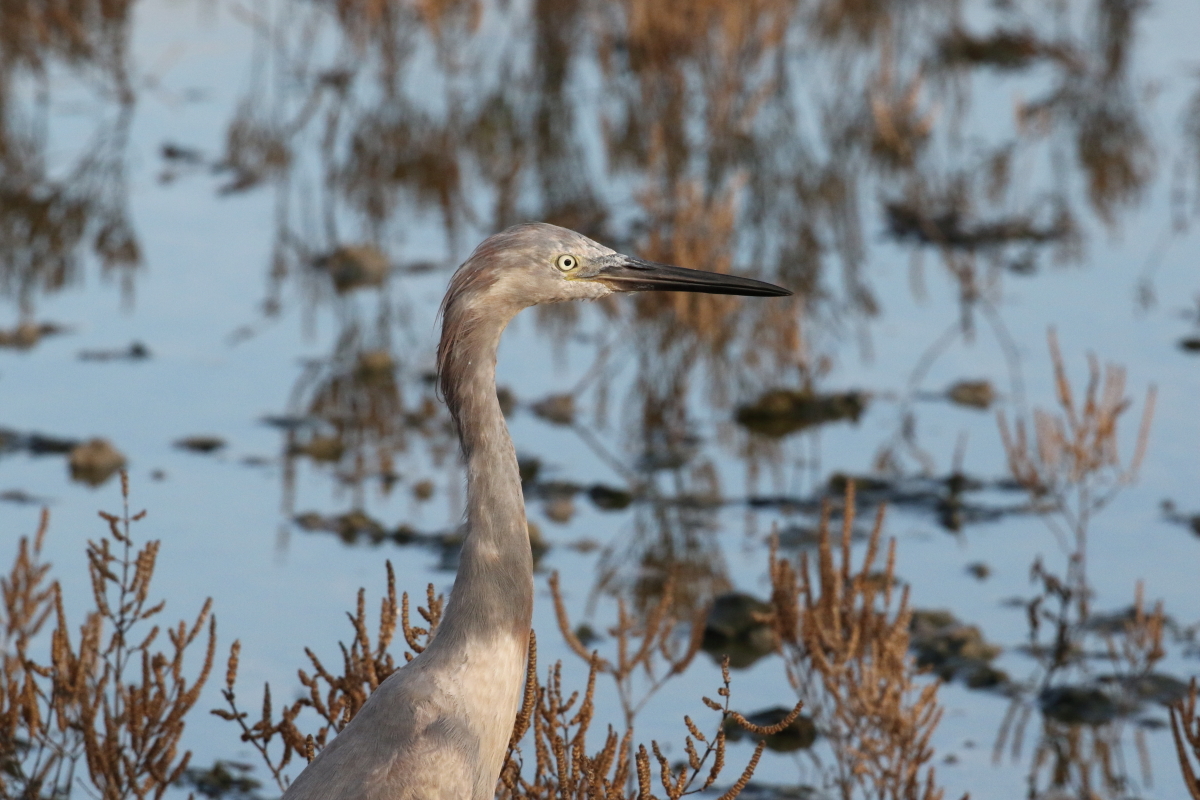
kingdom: Animalia
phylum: Chordata
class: Aves
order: Pelecaniformes
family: Ardeidae
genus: Egretta
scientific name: Egretta rufescens
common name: Reddish egret
